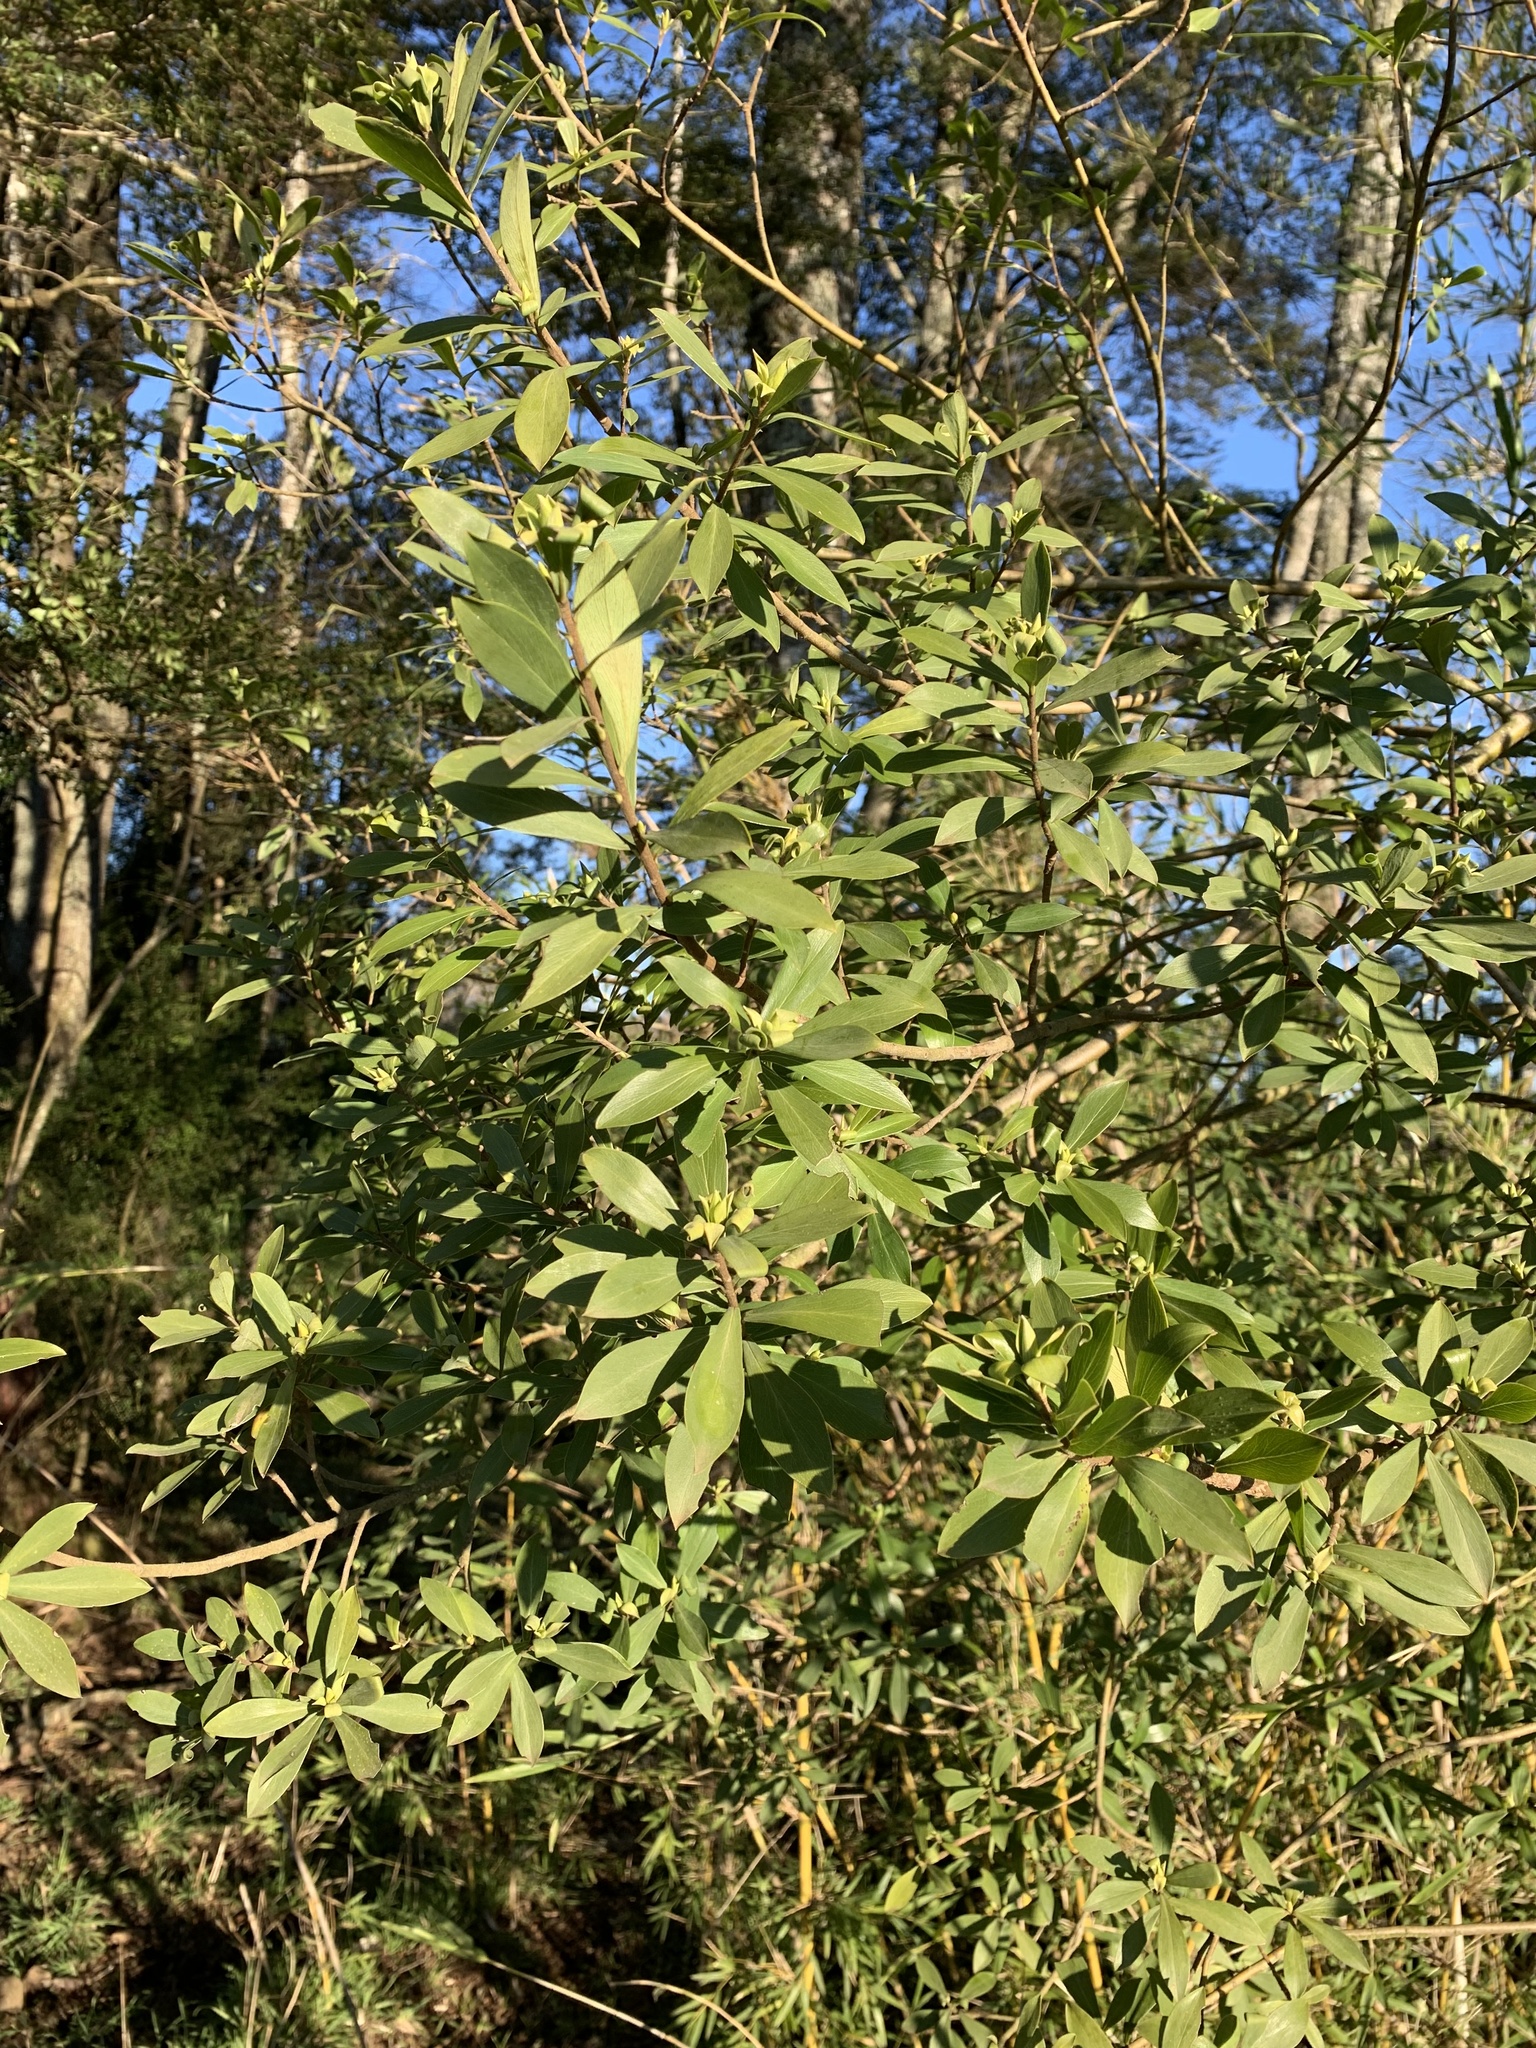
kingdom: Plantae
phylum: Tracheophyta
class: Magnoliopsida
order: Malvales
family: Thymelaeaceae
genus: Ovidia
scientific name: Ovidia andina
